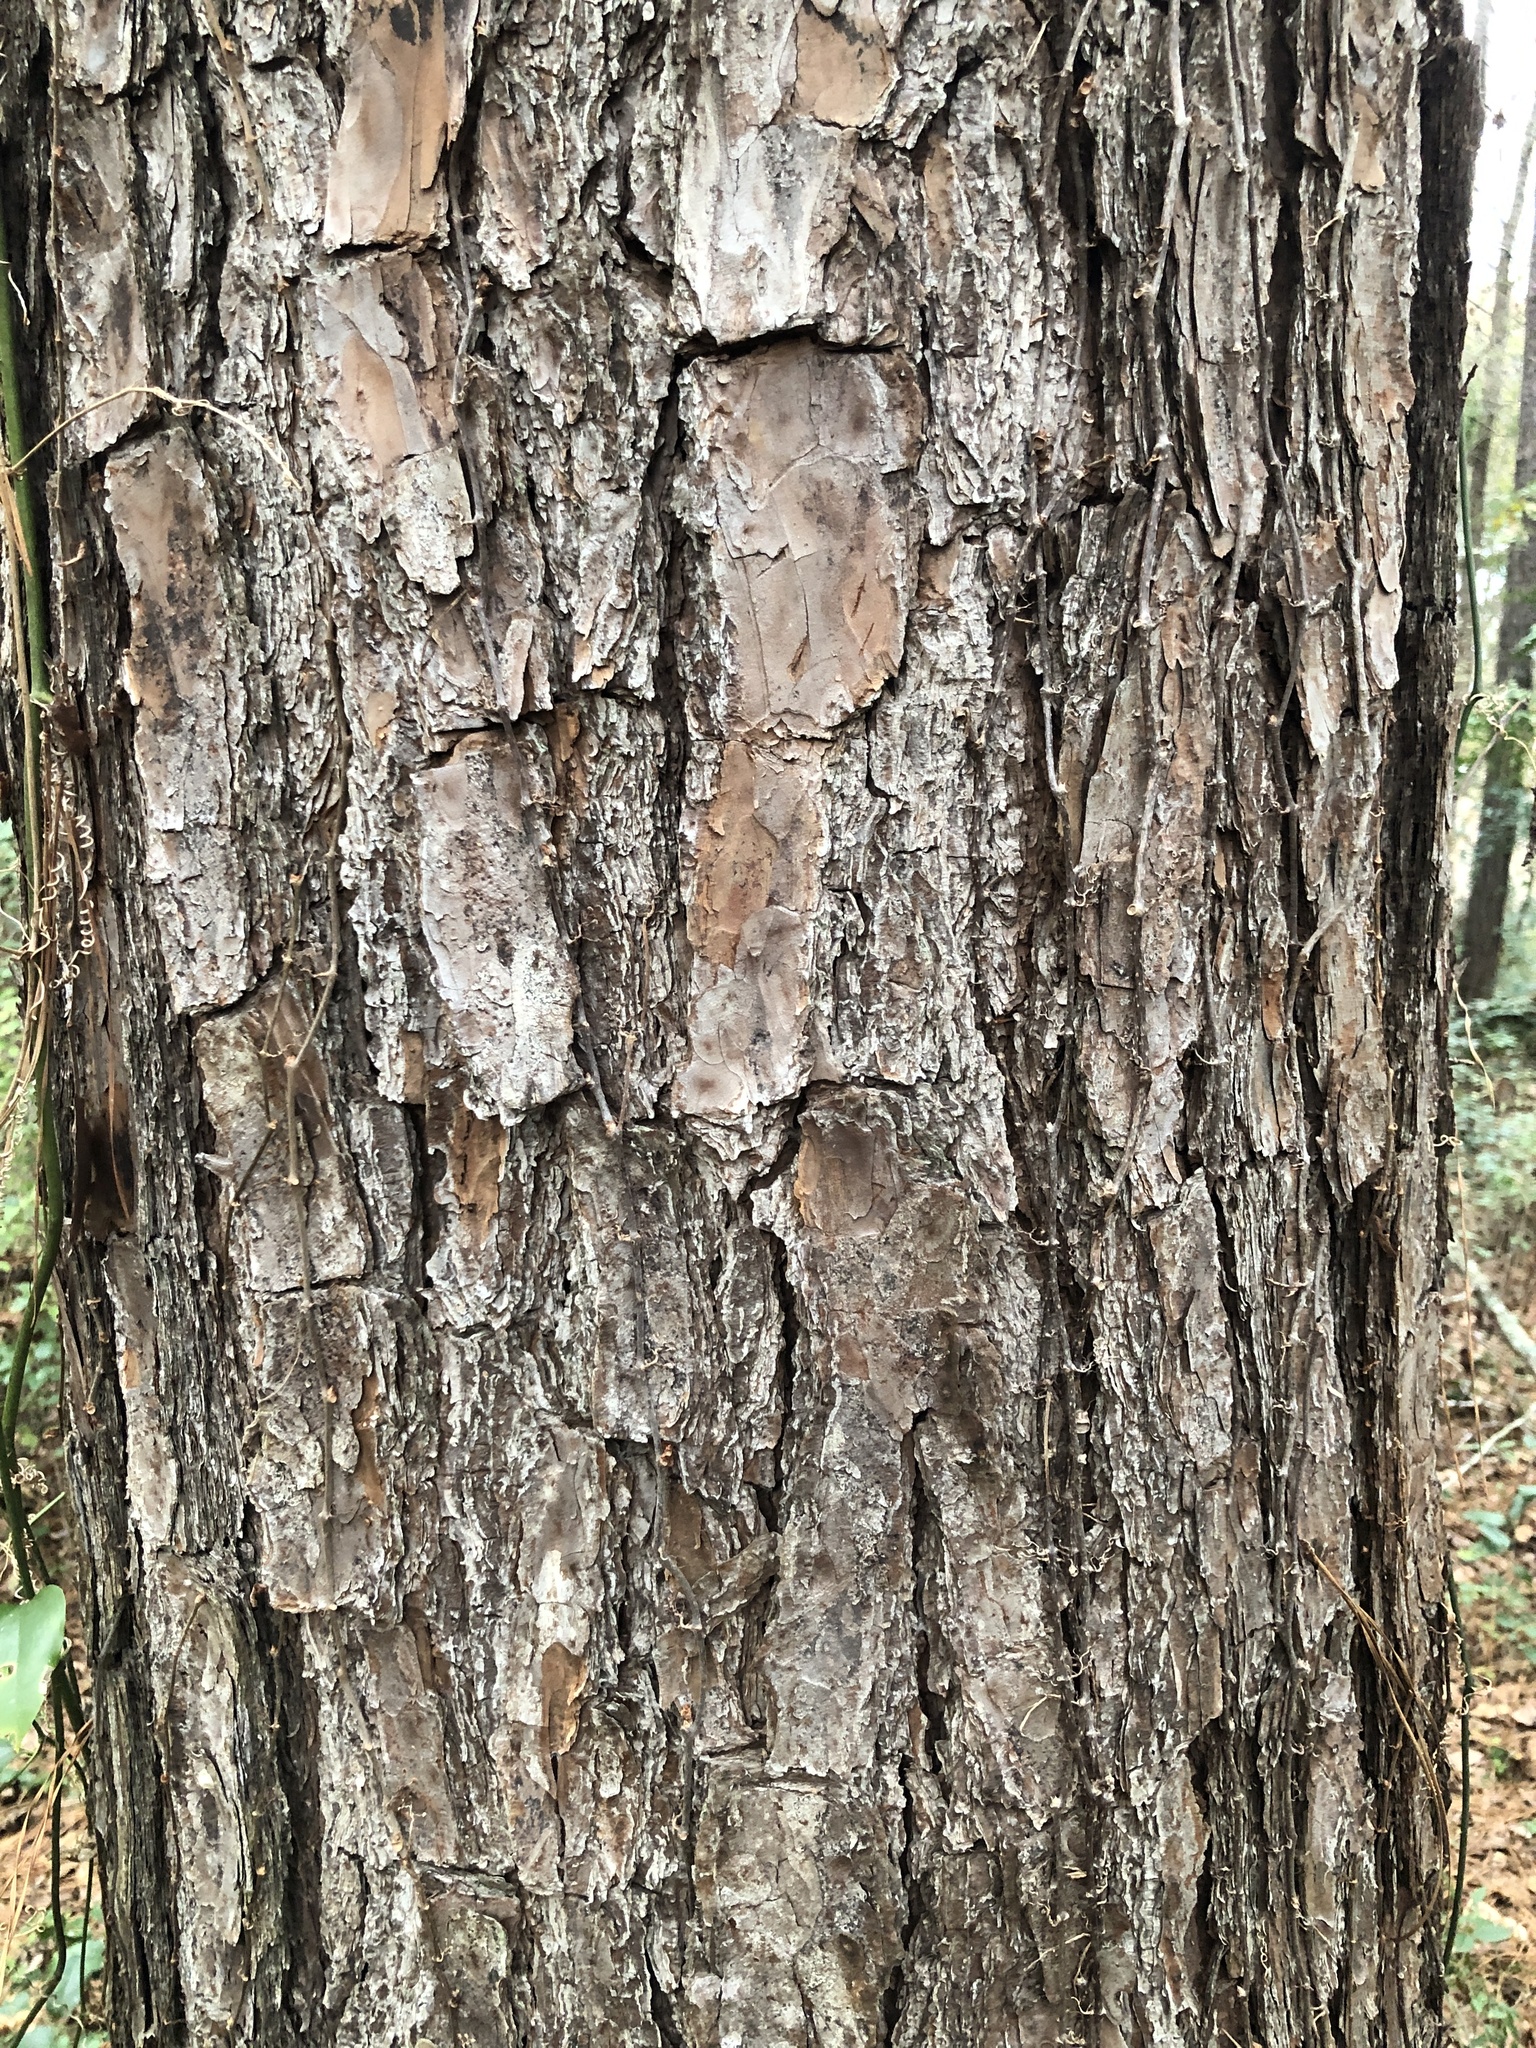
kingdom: Plantae
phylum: Tracheophyta
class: Pinopsida
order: Pinales
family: Pinaceae
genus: Pinus
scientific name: Pinus taeda
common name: Loblolly pine
